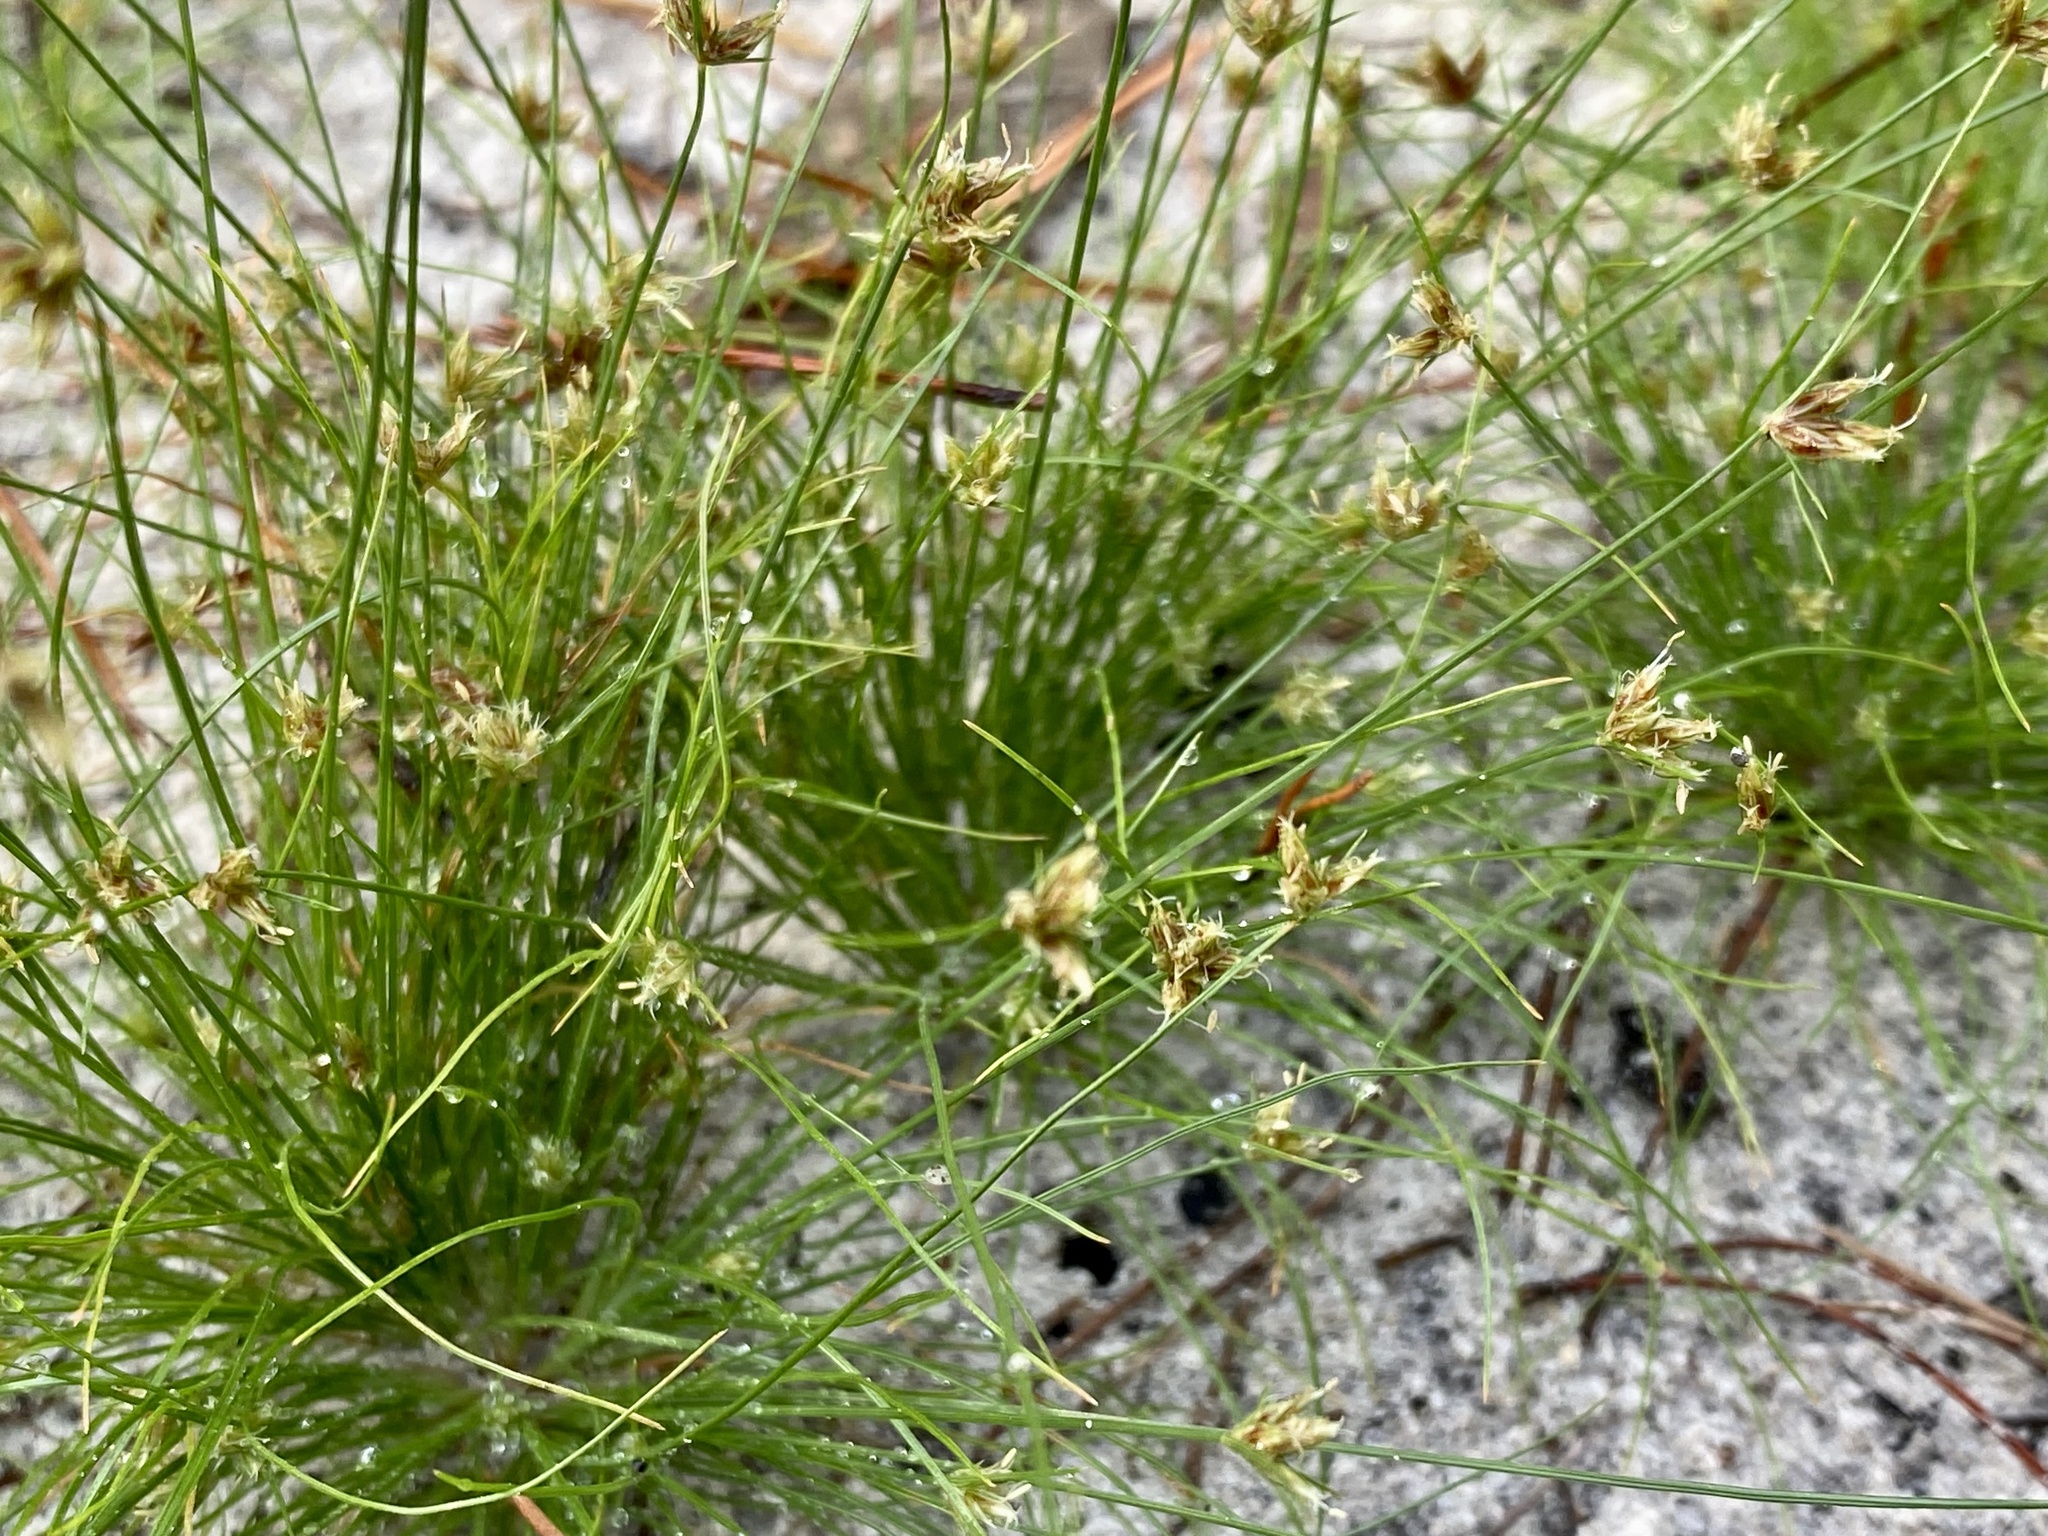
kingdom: Plantae
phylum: Tracheophyta
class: Liliopsida
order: Poales
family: Cyperaceae
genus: Bulbostylis
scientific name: Bulbostylis barbata
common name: Watergrass
